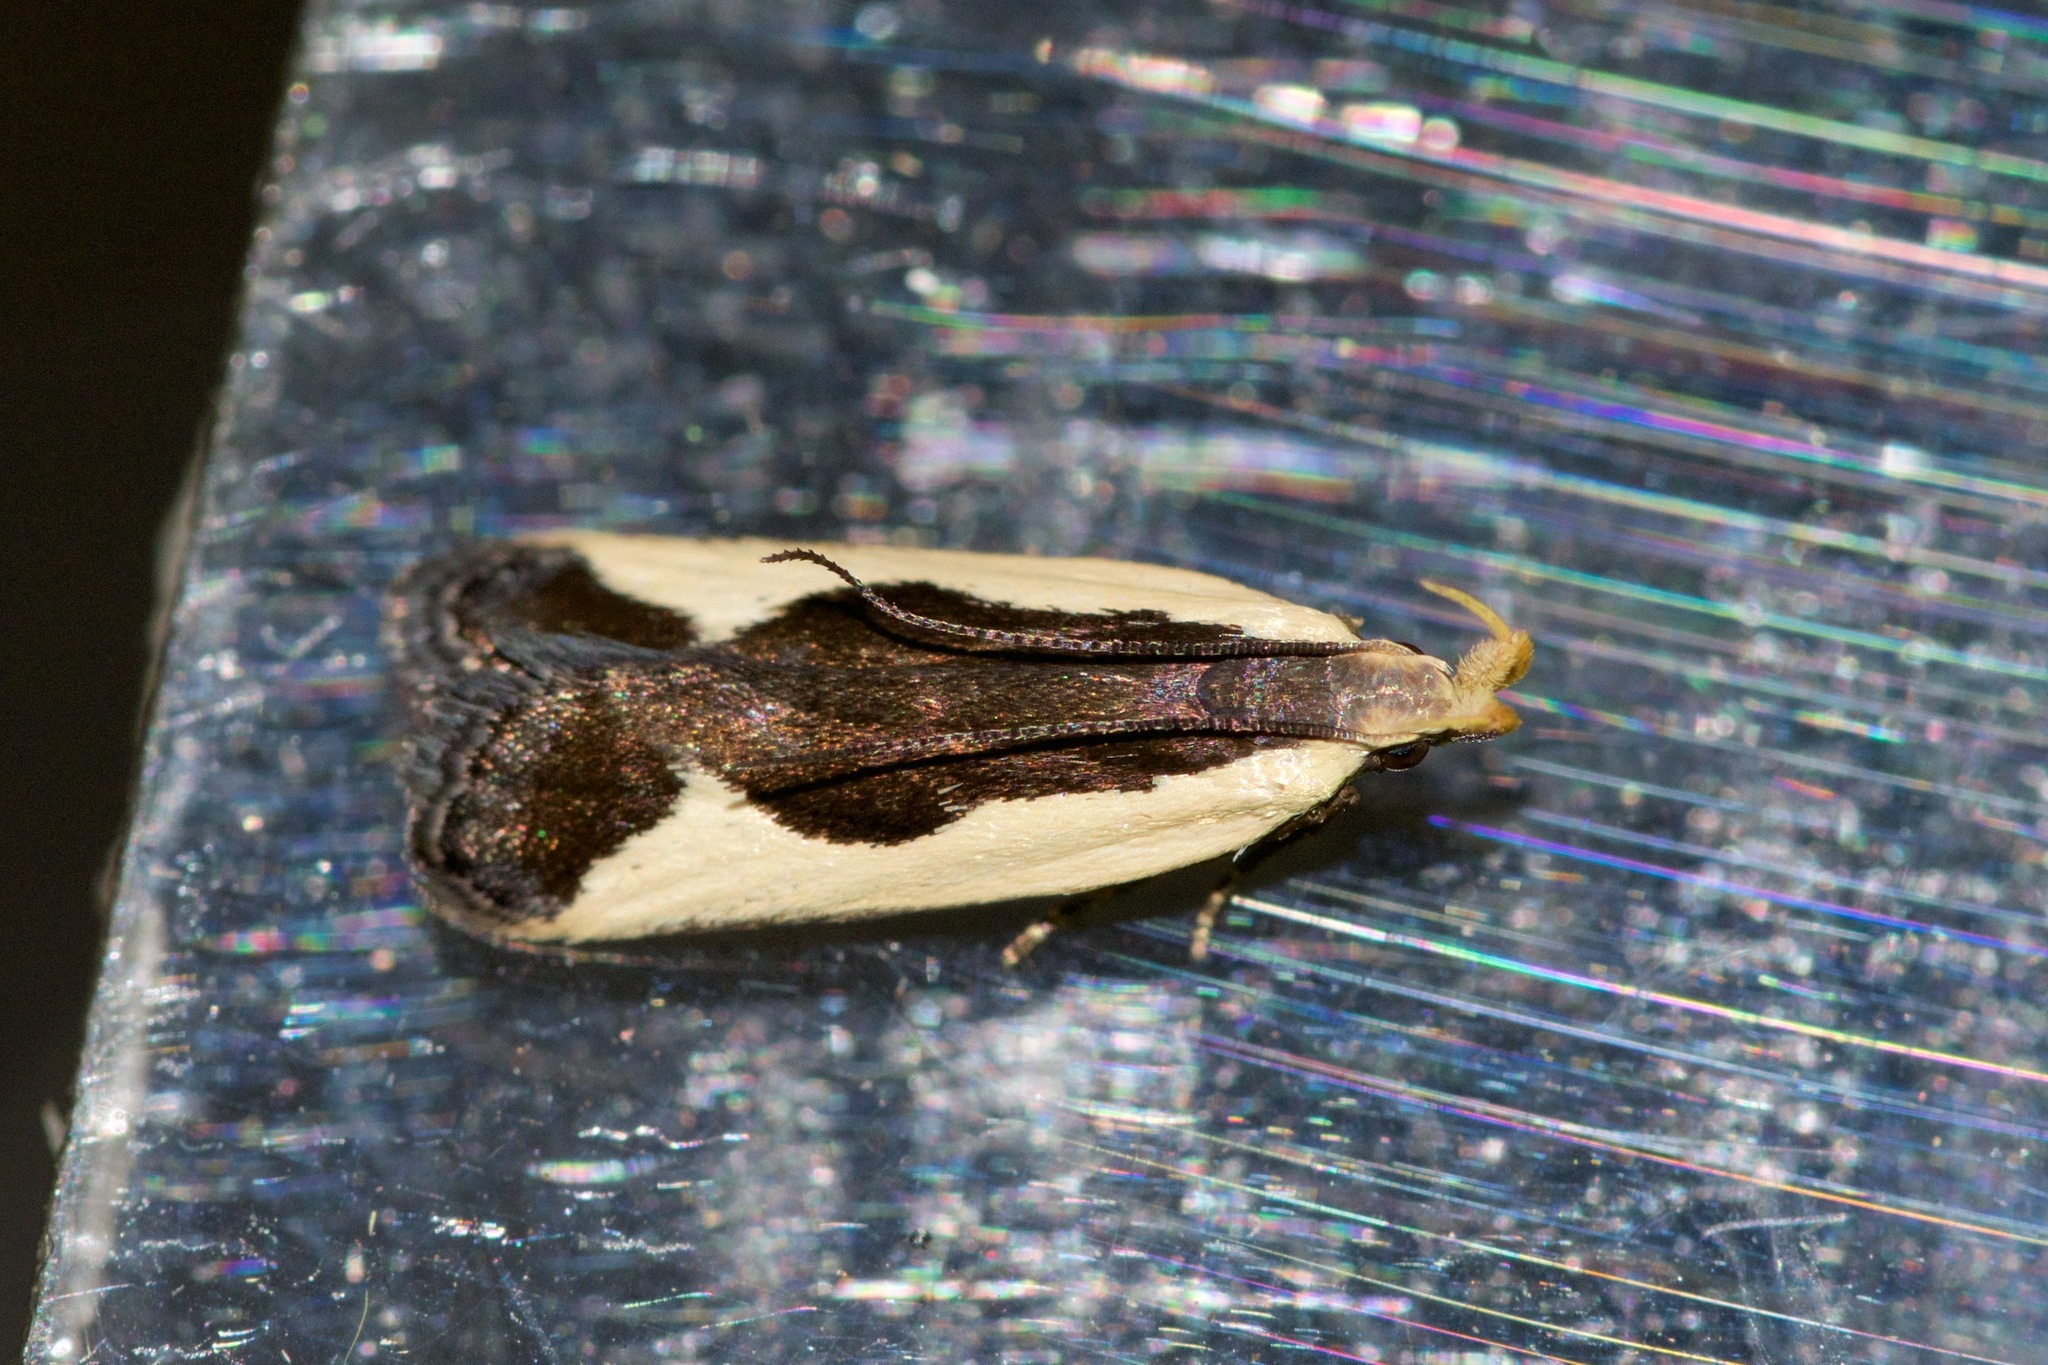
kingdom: Animalia
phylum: Arthropoda
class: Insecta
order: Lepidoptera
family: Gelechiidae
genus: Dichomeris
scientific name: Dichomeris flavocostella
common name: Cream-edged dichomeris moth
